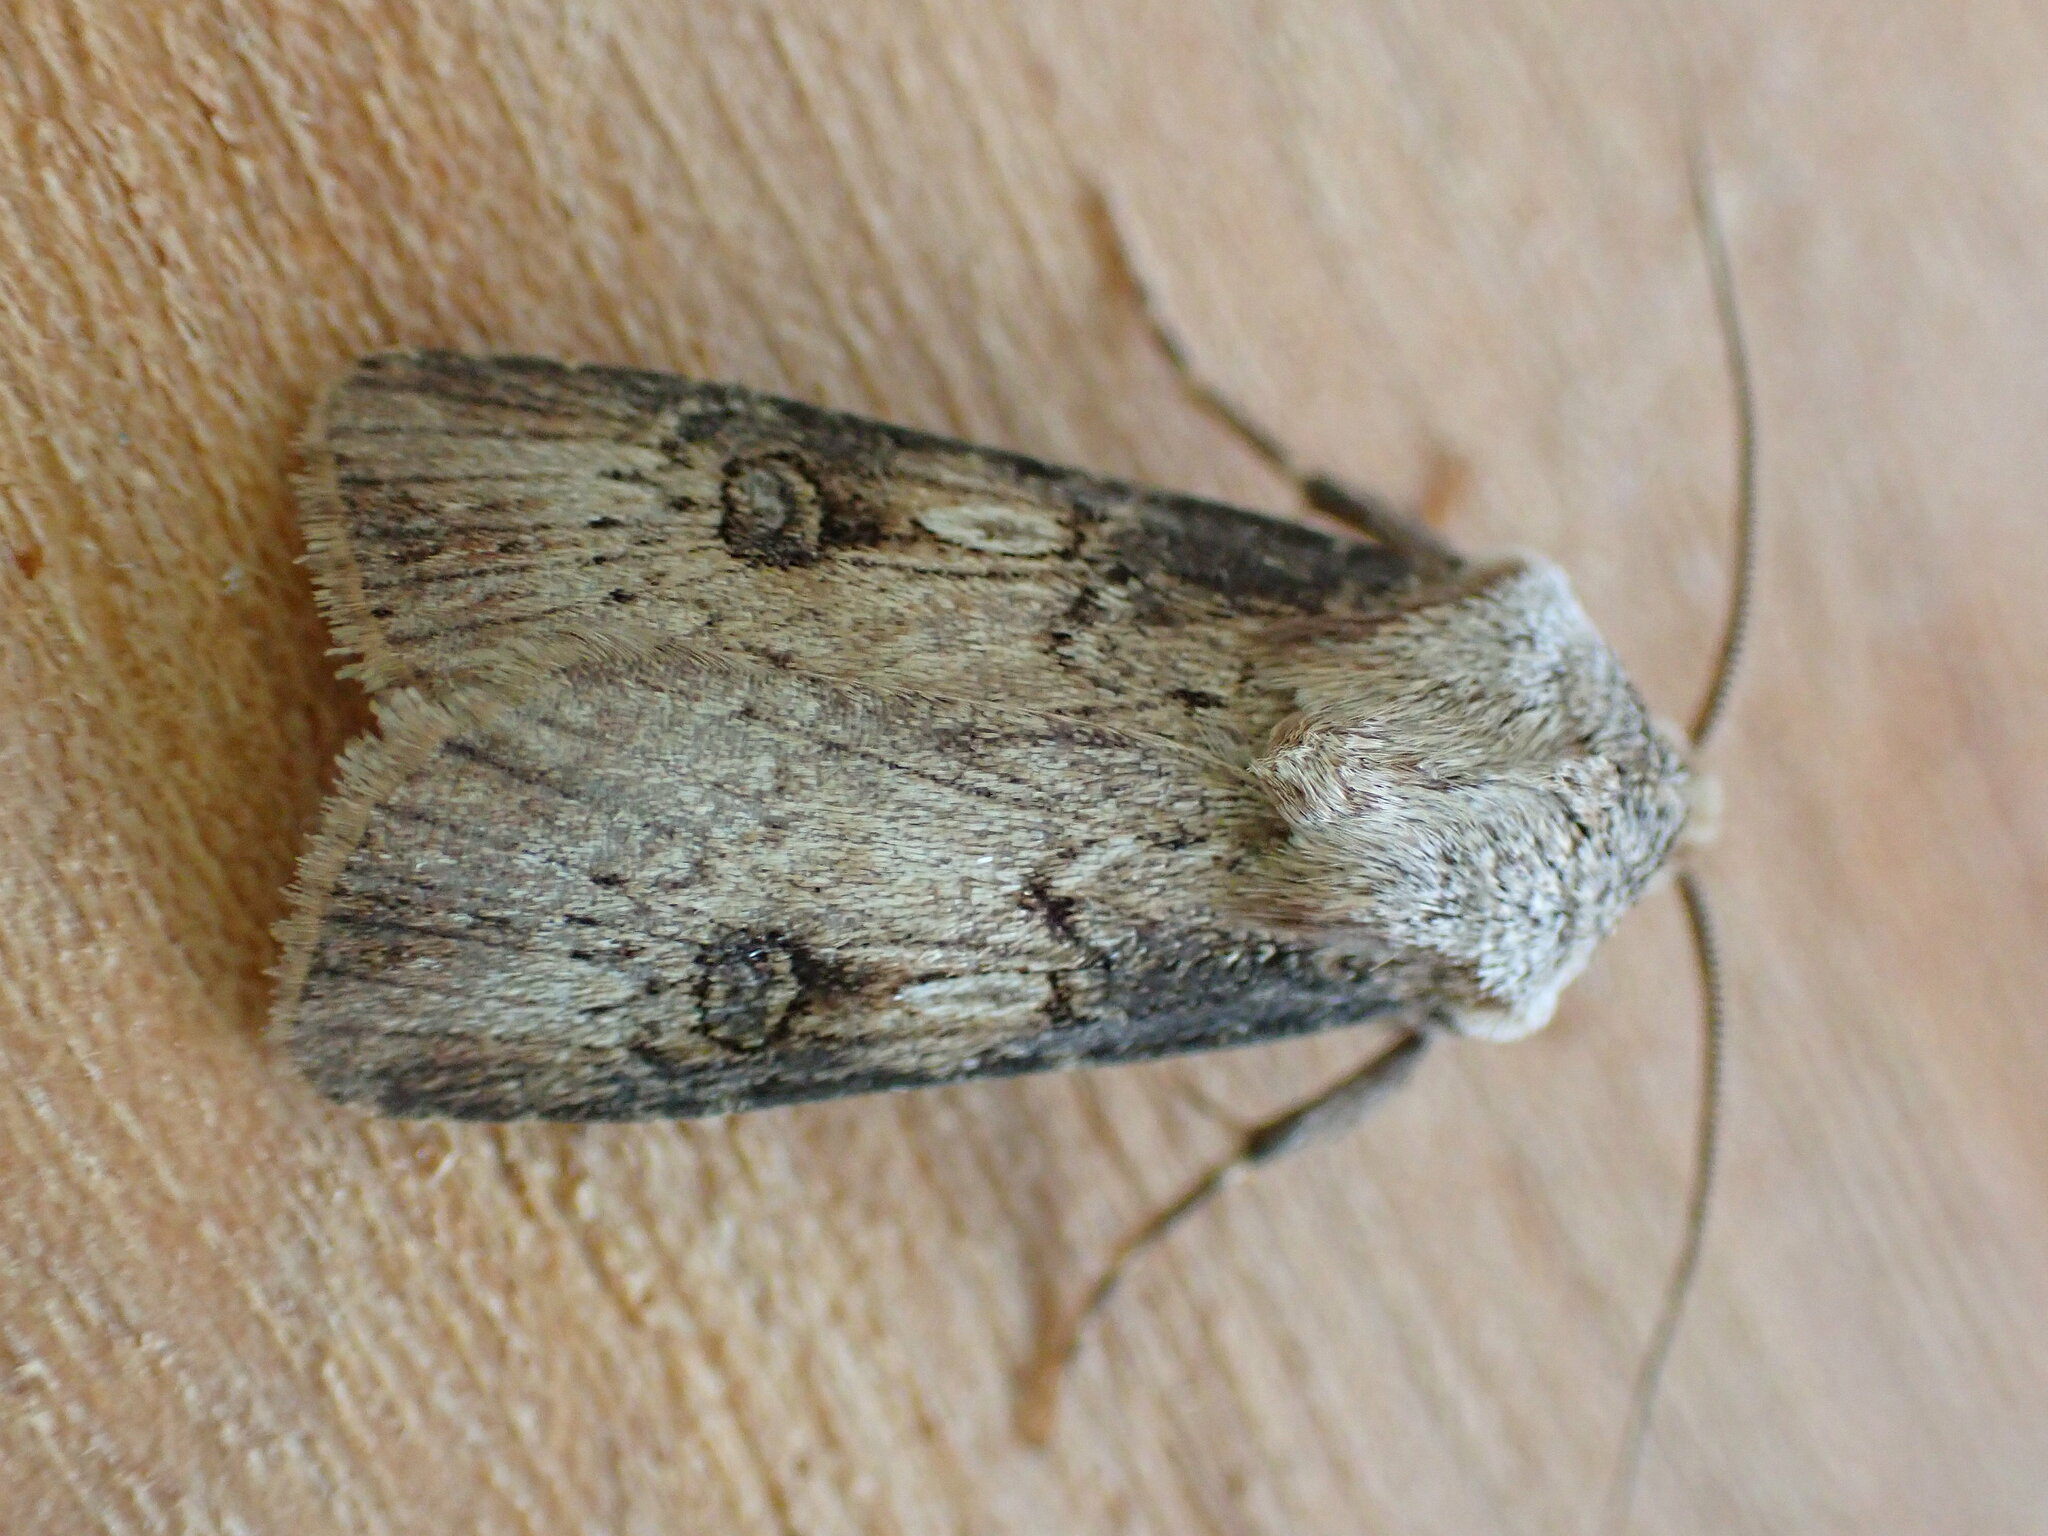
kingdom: Animalia
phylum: Arthropoda
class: Insecta
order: Lepidoptera
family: Noctuidae
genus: Agrotis
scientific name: Agrotis puta
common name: Shuttle-shaped dart
